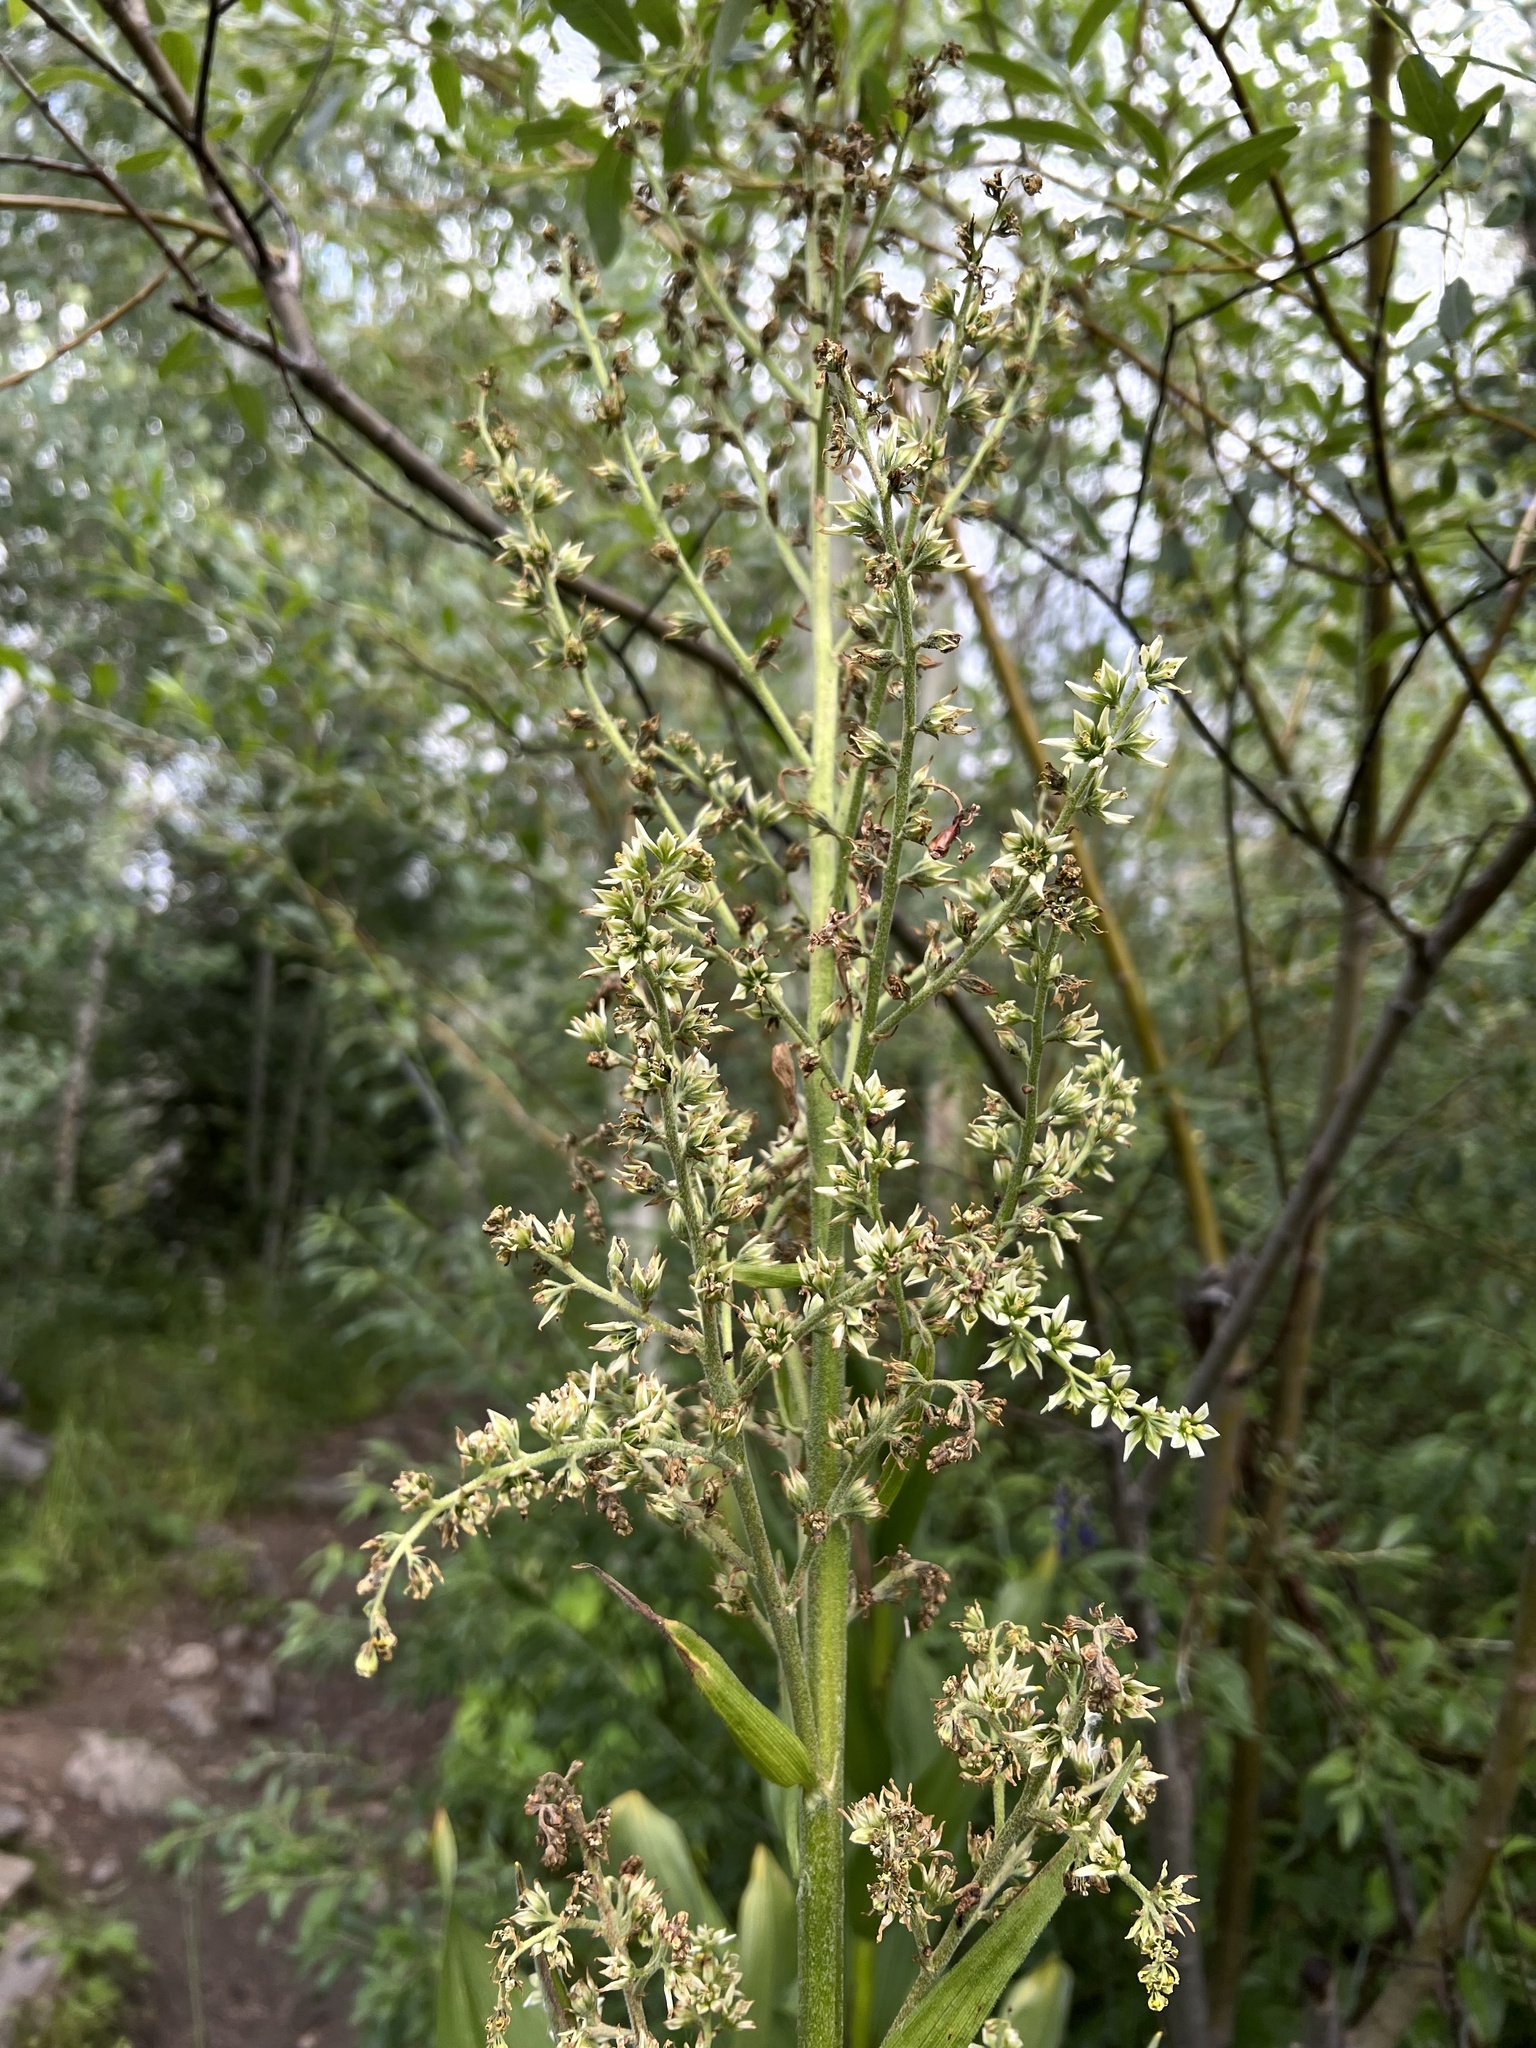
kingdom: Plantae
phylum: Tracheophyta
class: Liliopsida
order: Liliales
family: Melanthiaceae
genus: Veratrum
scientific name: Veratrum californicum
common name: California veratrum
